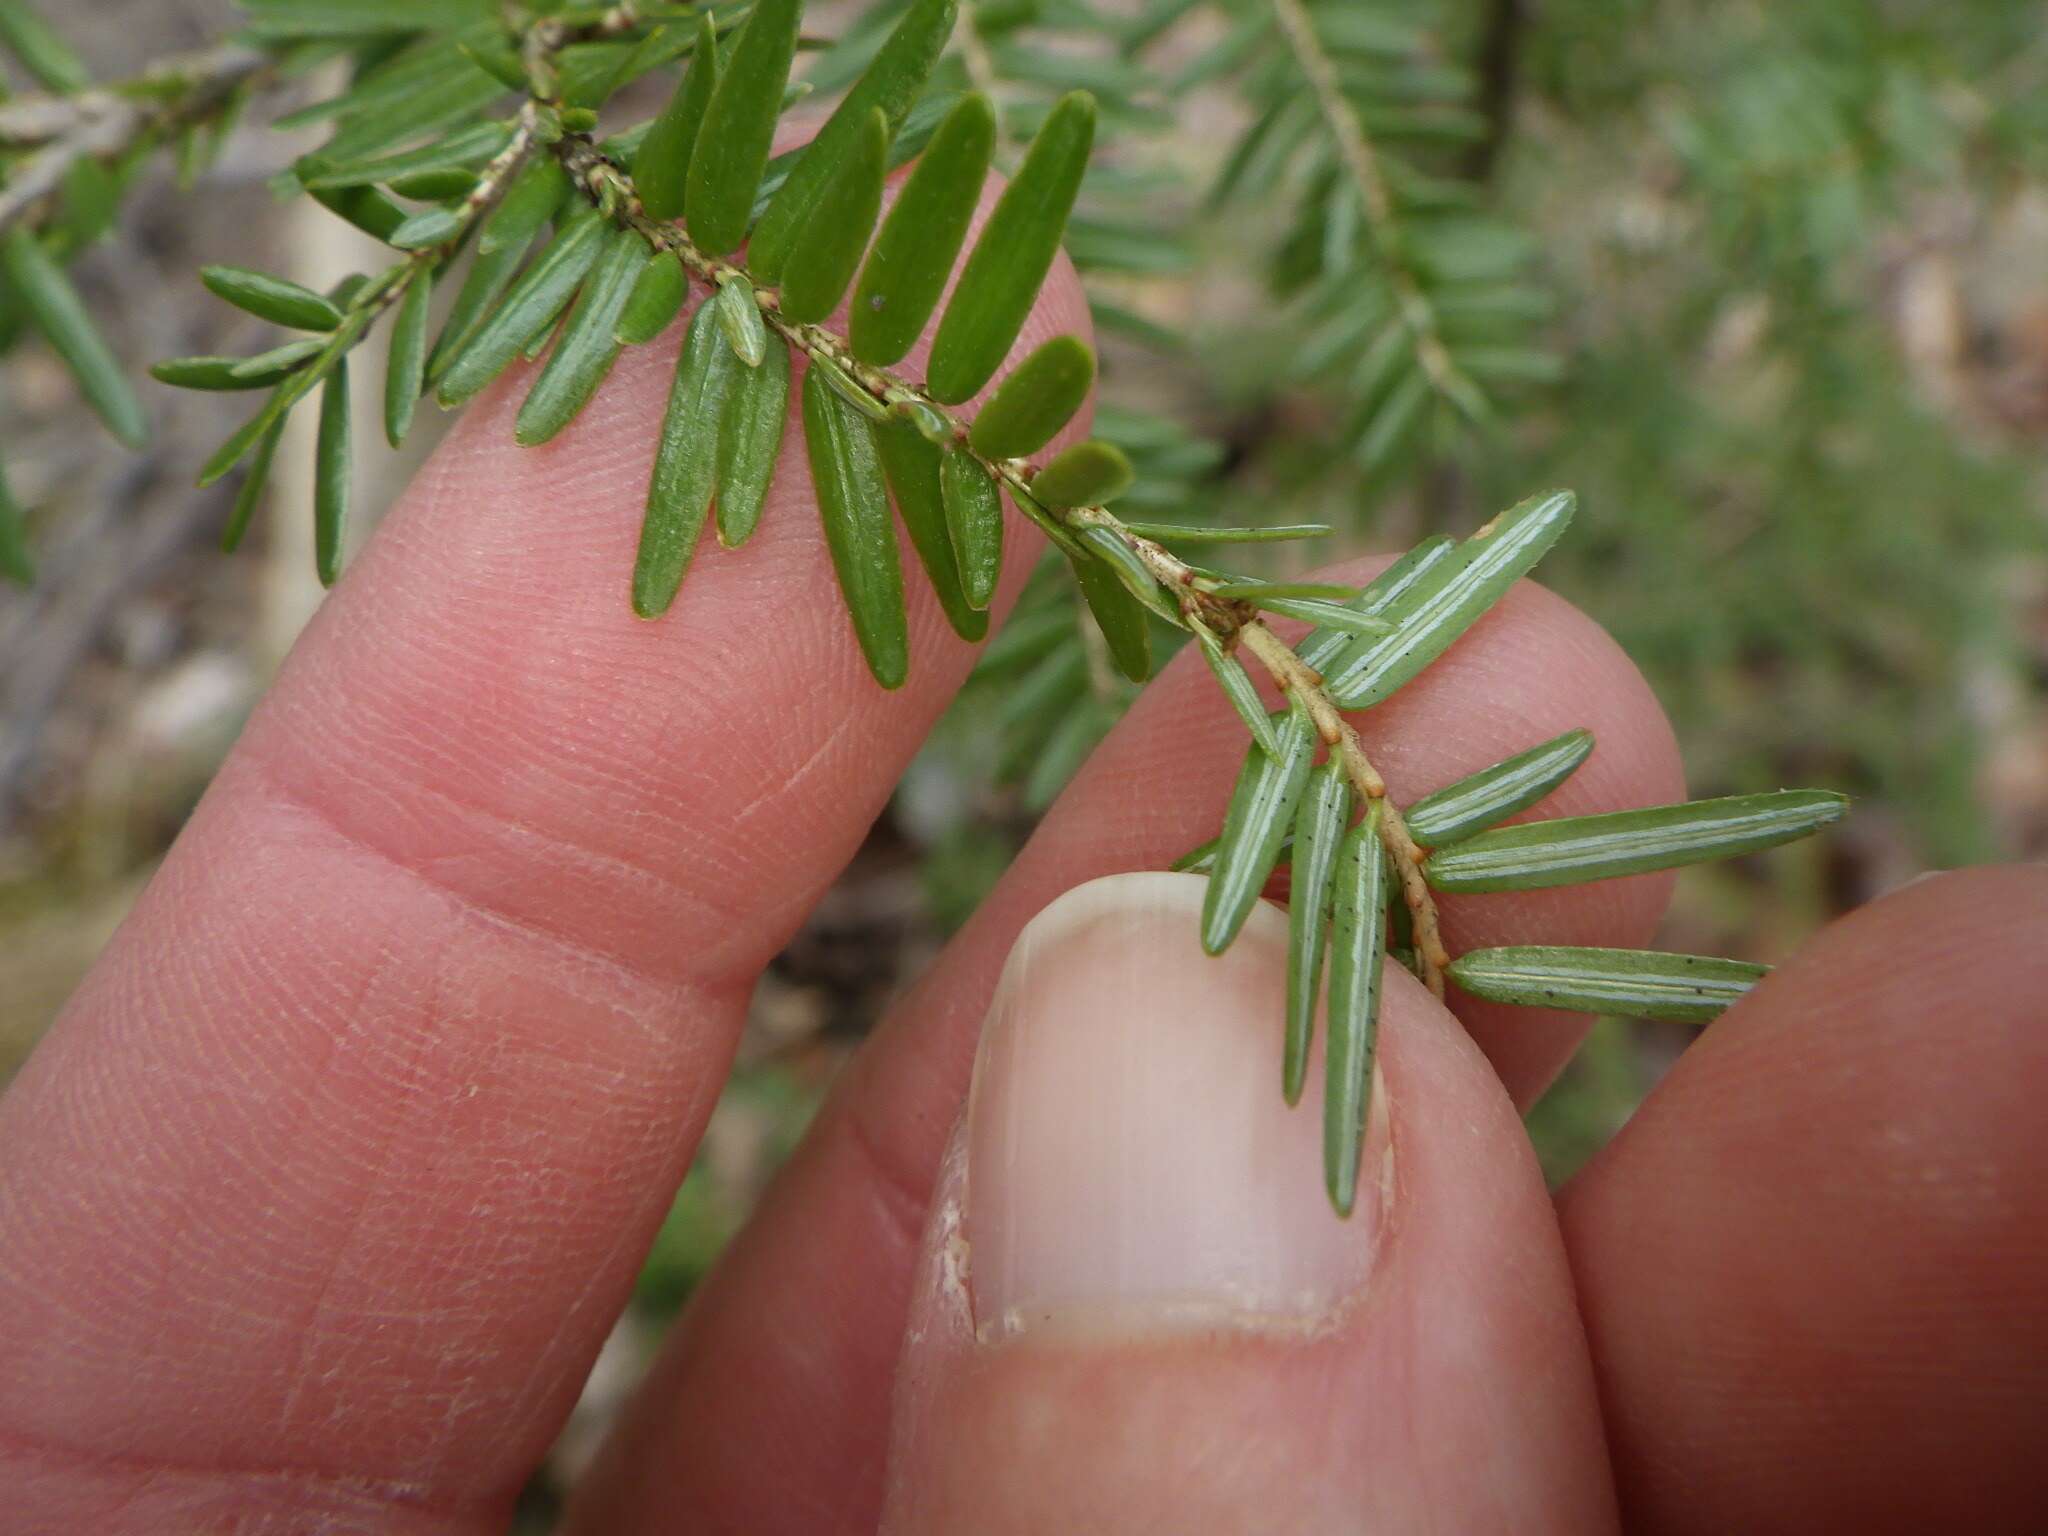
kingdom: Plantae
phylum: Tracheophyta
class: Pinopsida
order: Pinales
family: Pinaceae
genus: Tsuga
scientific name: Tsuga canadensis
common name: Eastern hemlock
